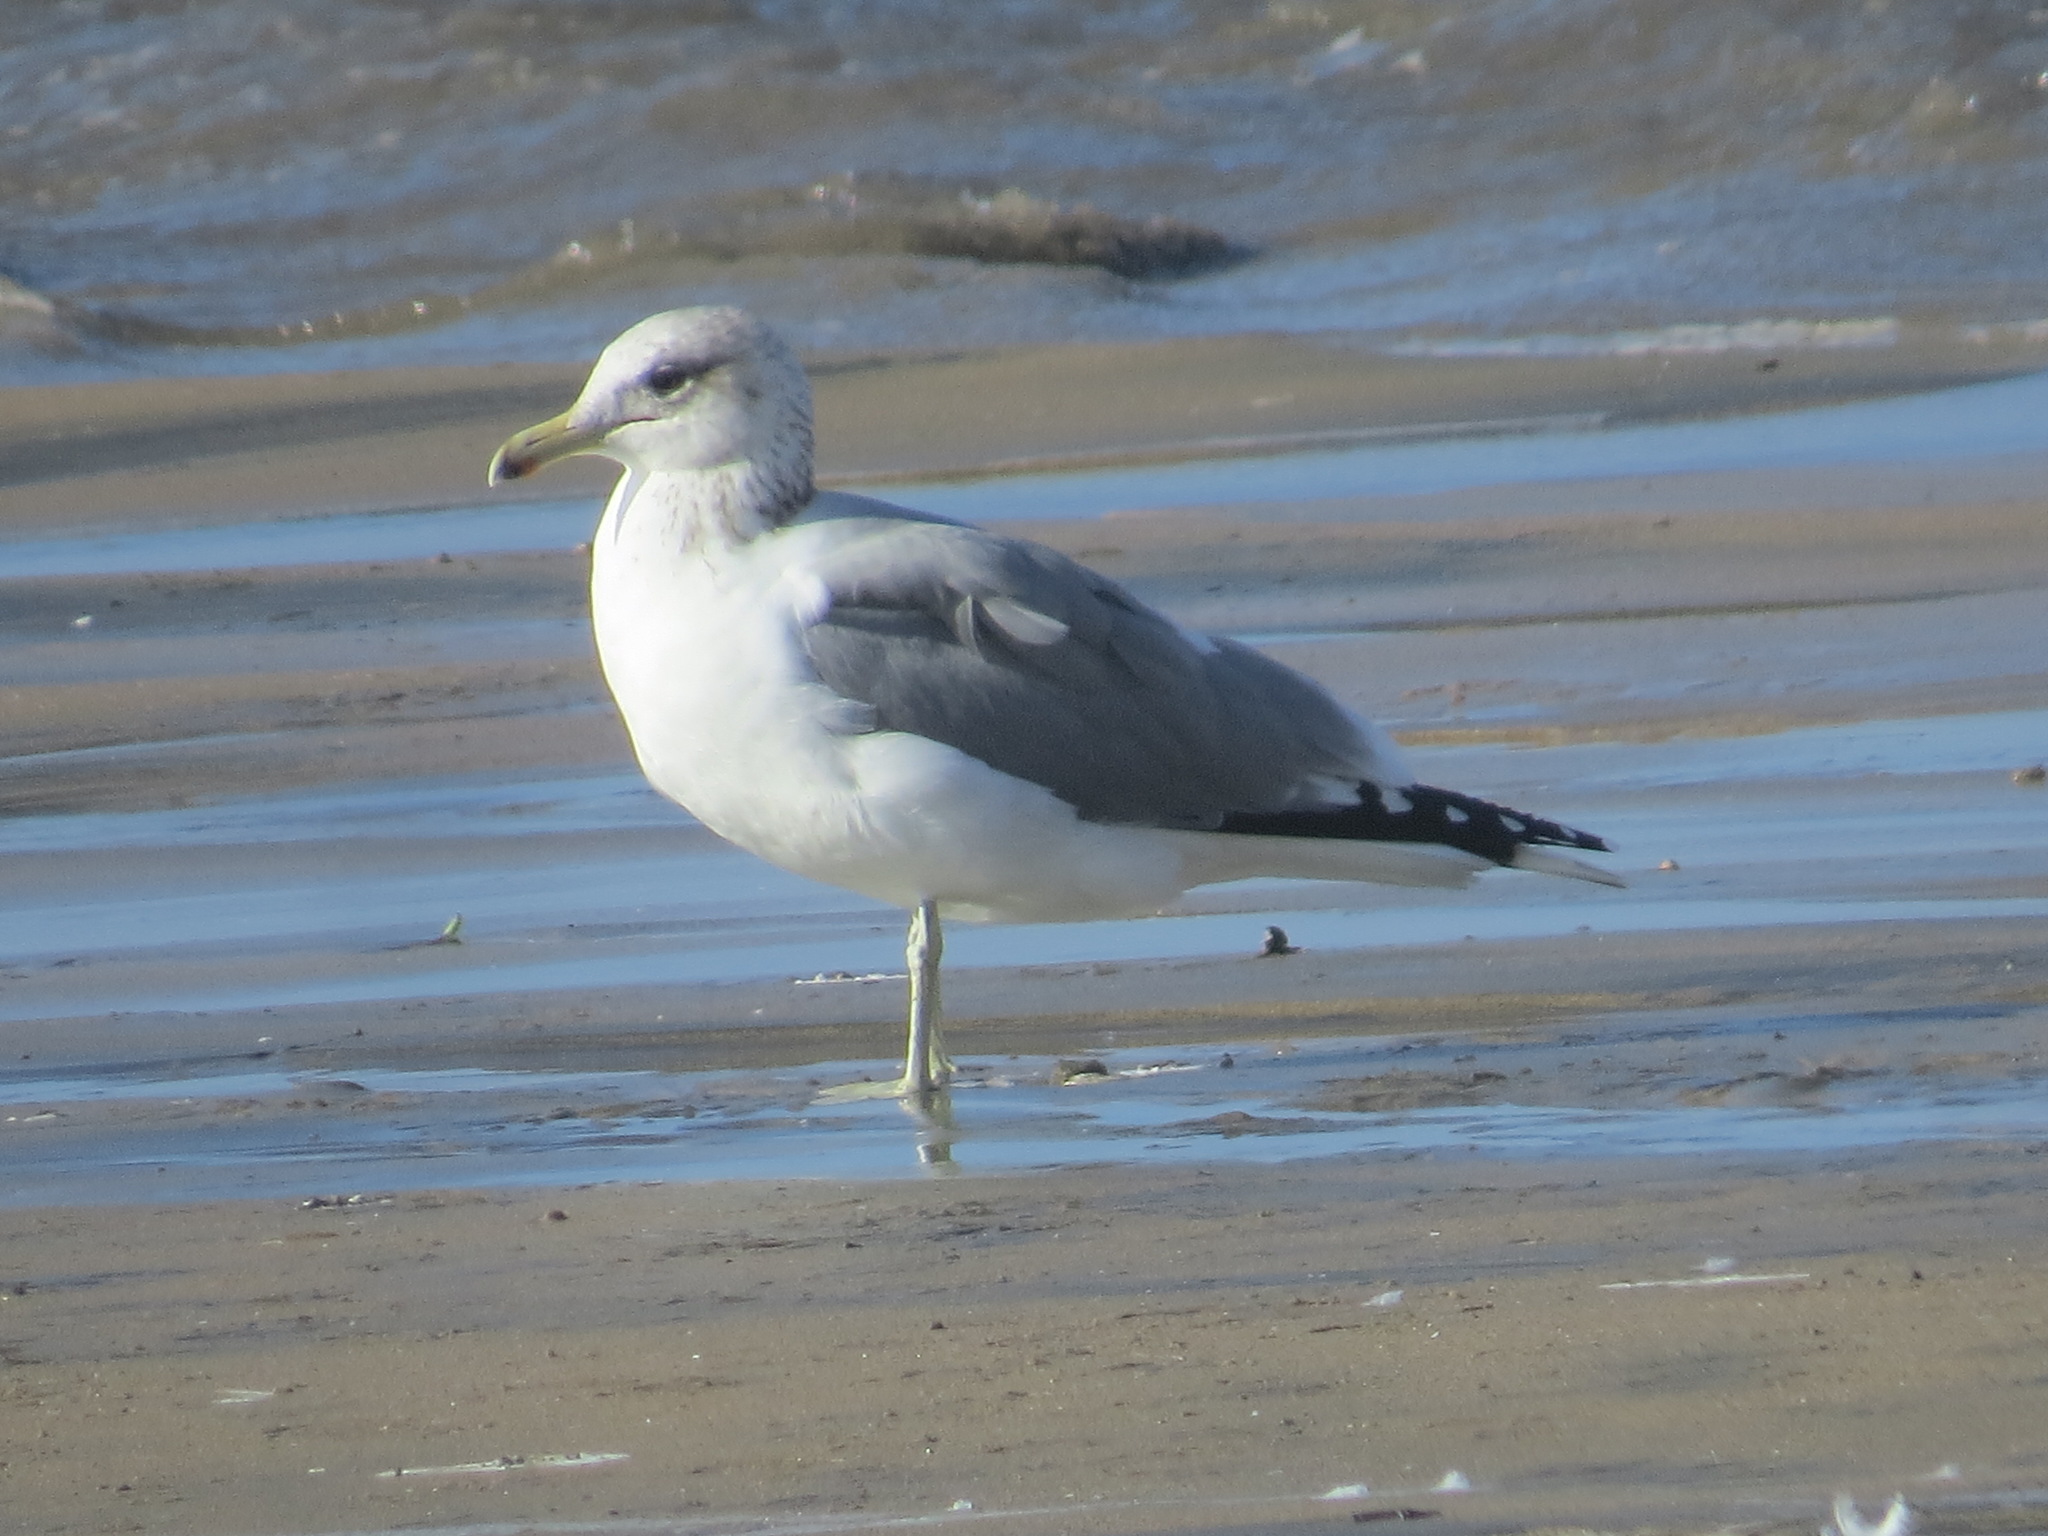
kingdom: Animalia
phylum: Chordata
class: Aves
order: Charadriiformes
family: Laridae
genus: Larus
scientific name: Larus californicus
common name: California gull
